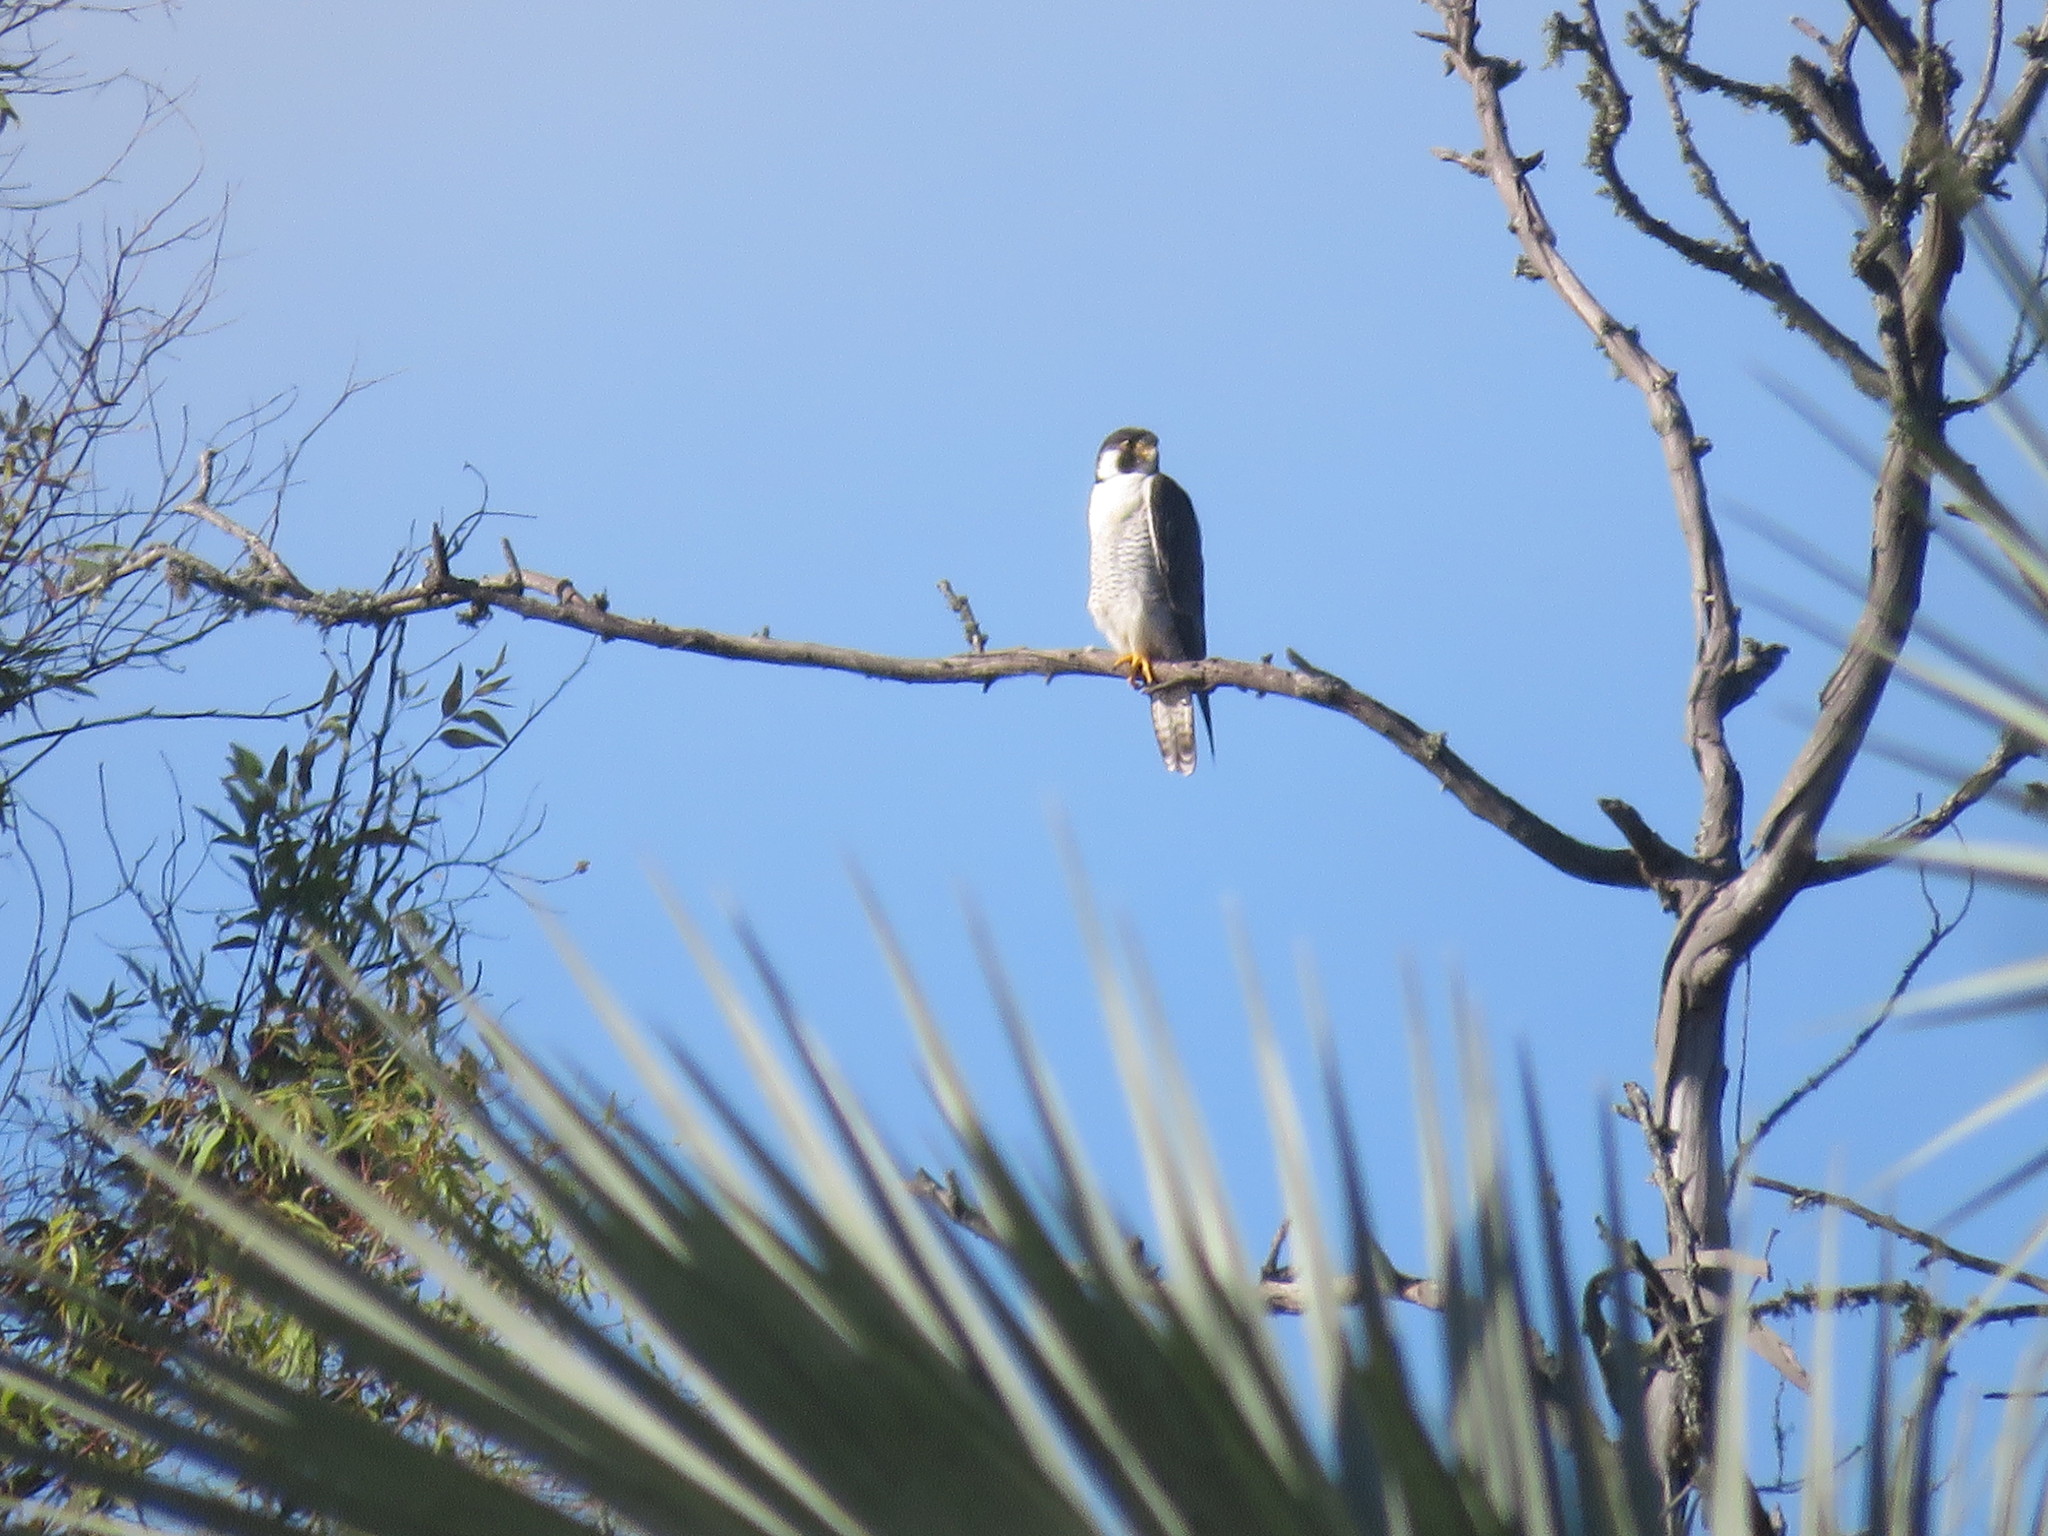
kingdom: Animalia
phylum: Chordata
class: Aves
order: Falconiformes
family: Falconidae
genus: Falco
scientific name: Falco peregrinus
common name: Peregrine falcon
